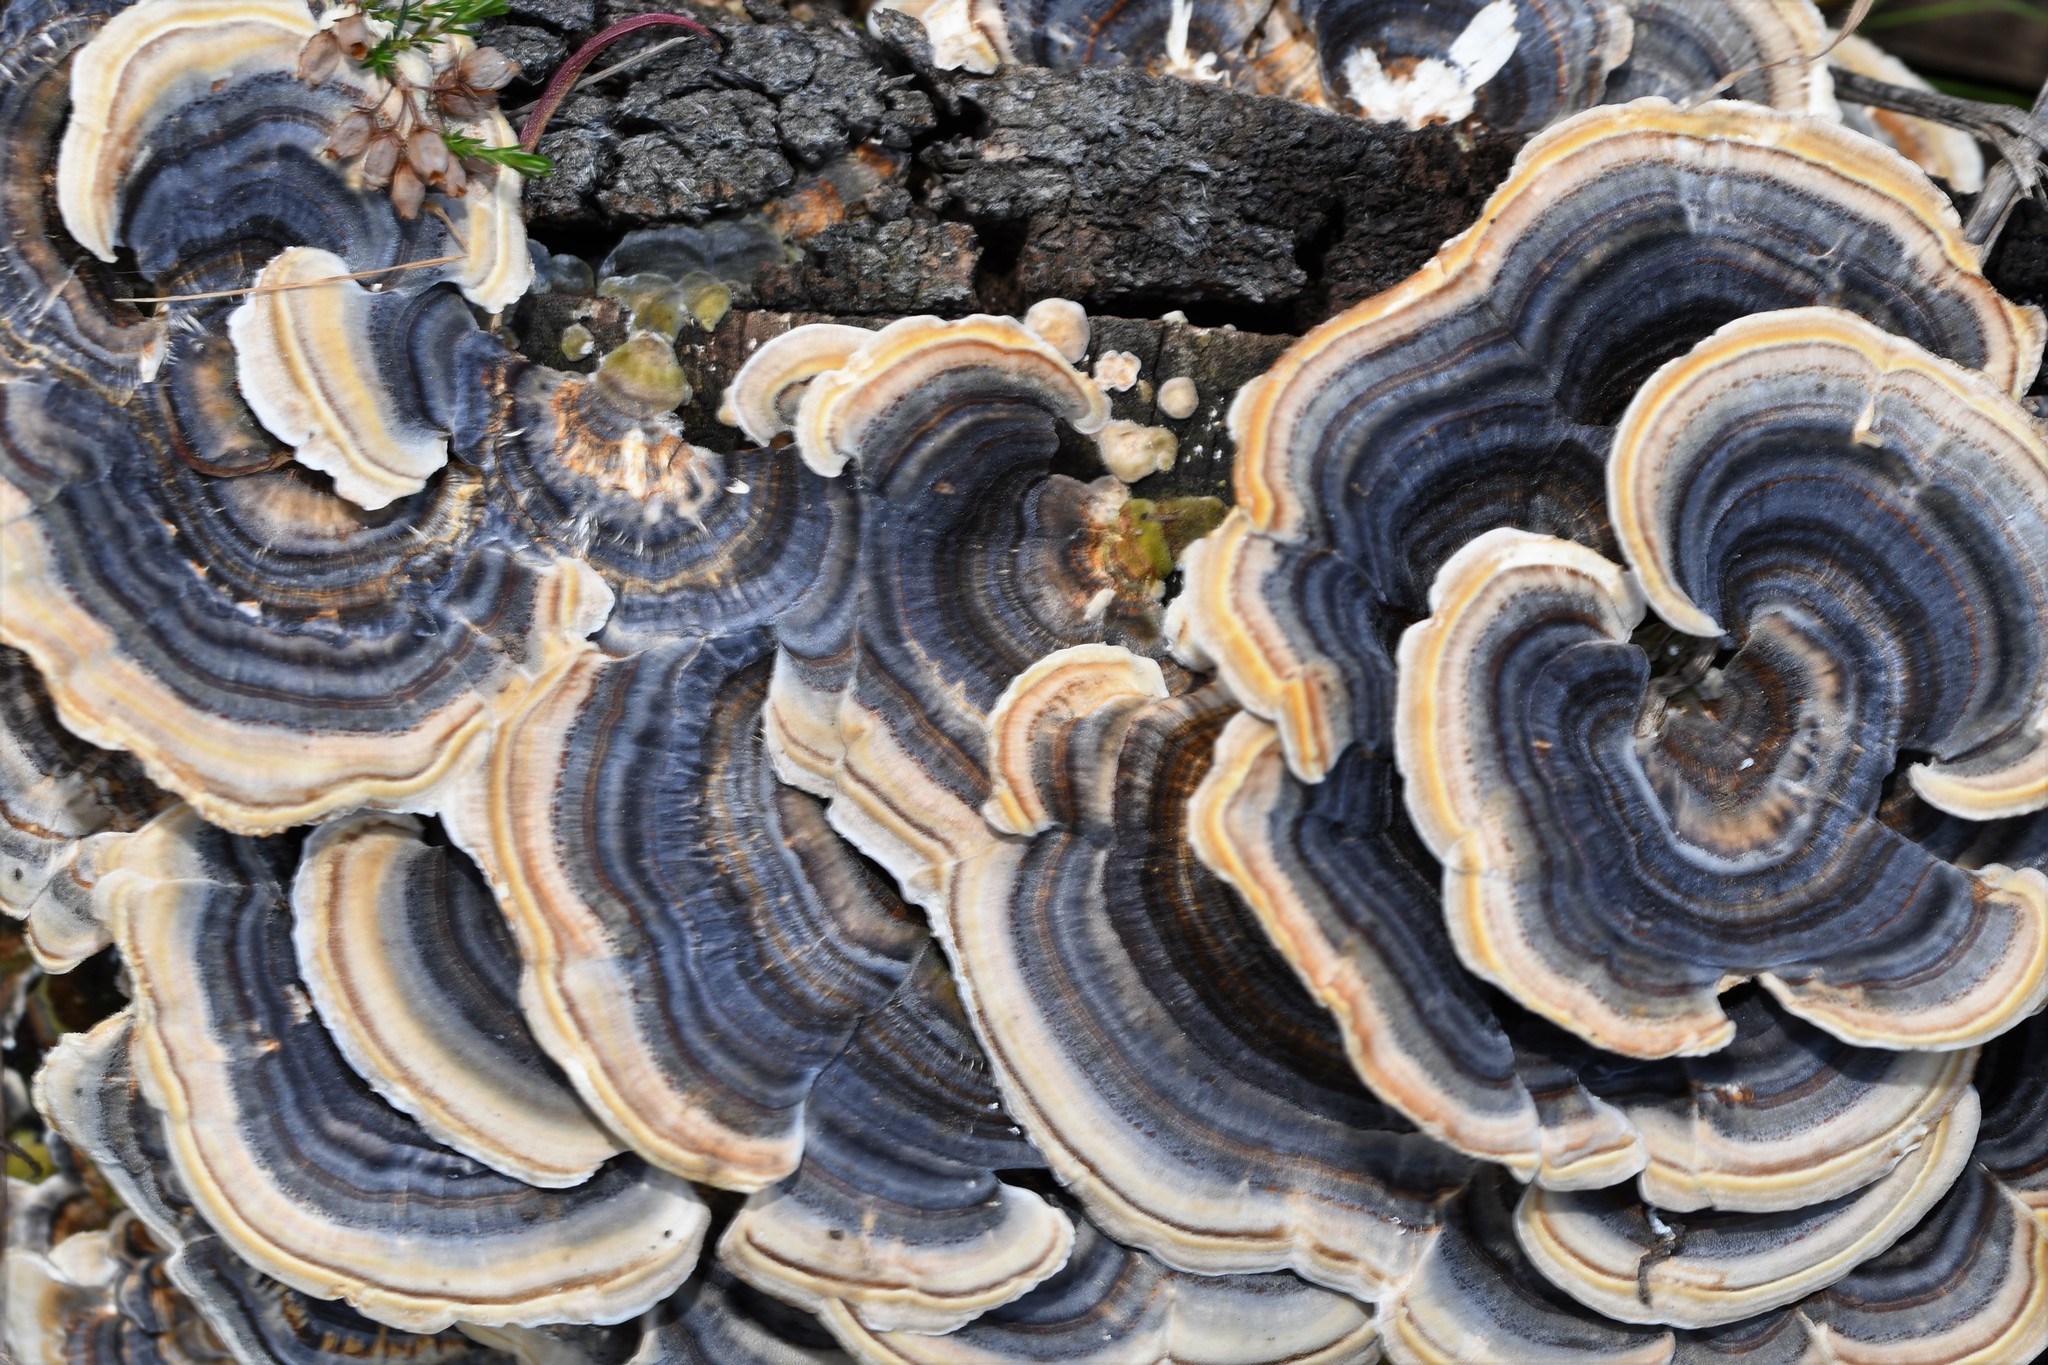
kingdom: Fungi
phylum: Basidiomycota
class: Agaricomycetes
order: Polyporales
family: Polyporaceae
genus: Trametes
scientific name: Trametes versicolor
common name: Turkeytail
